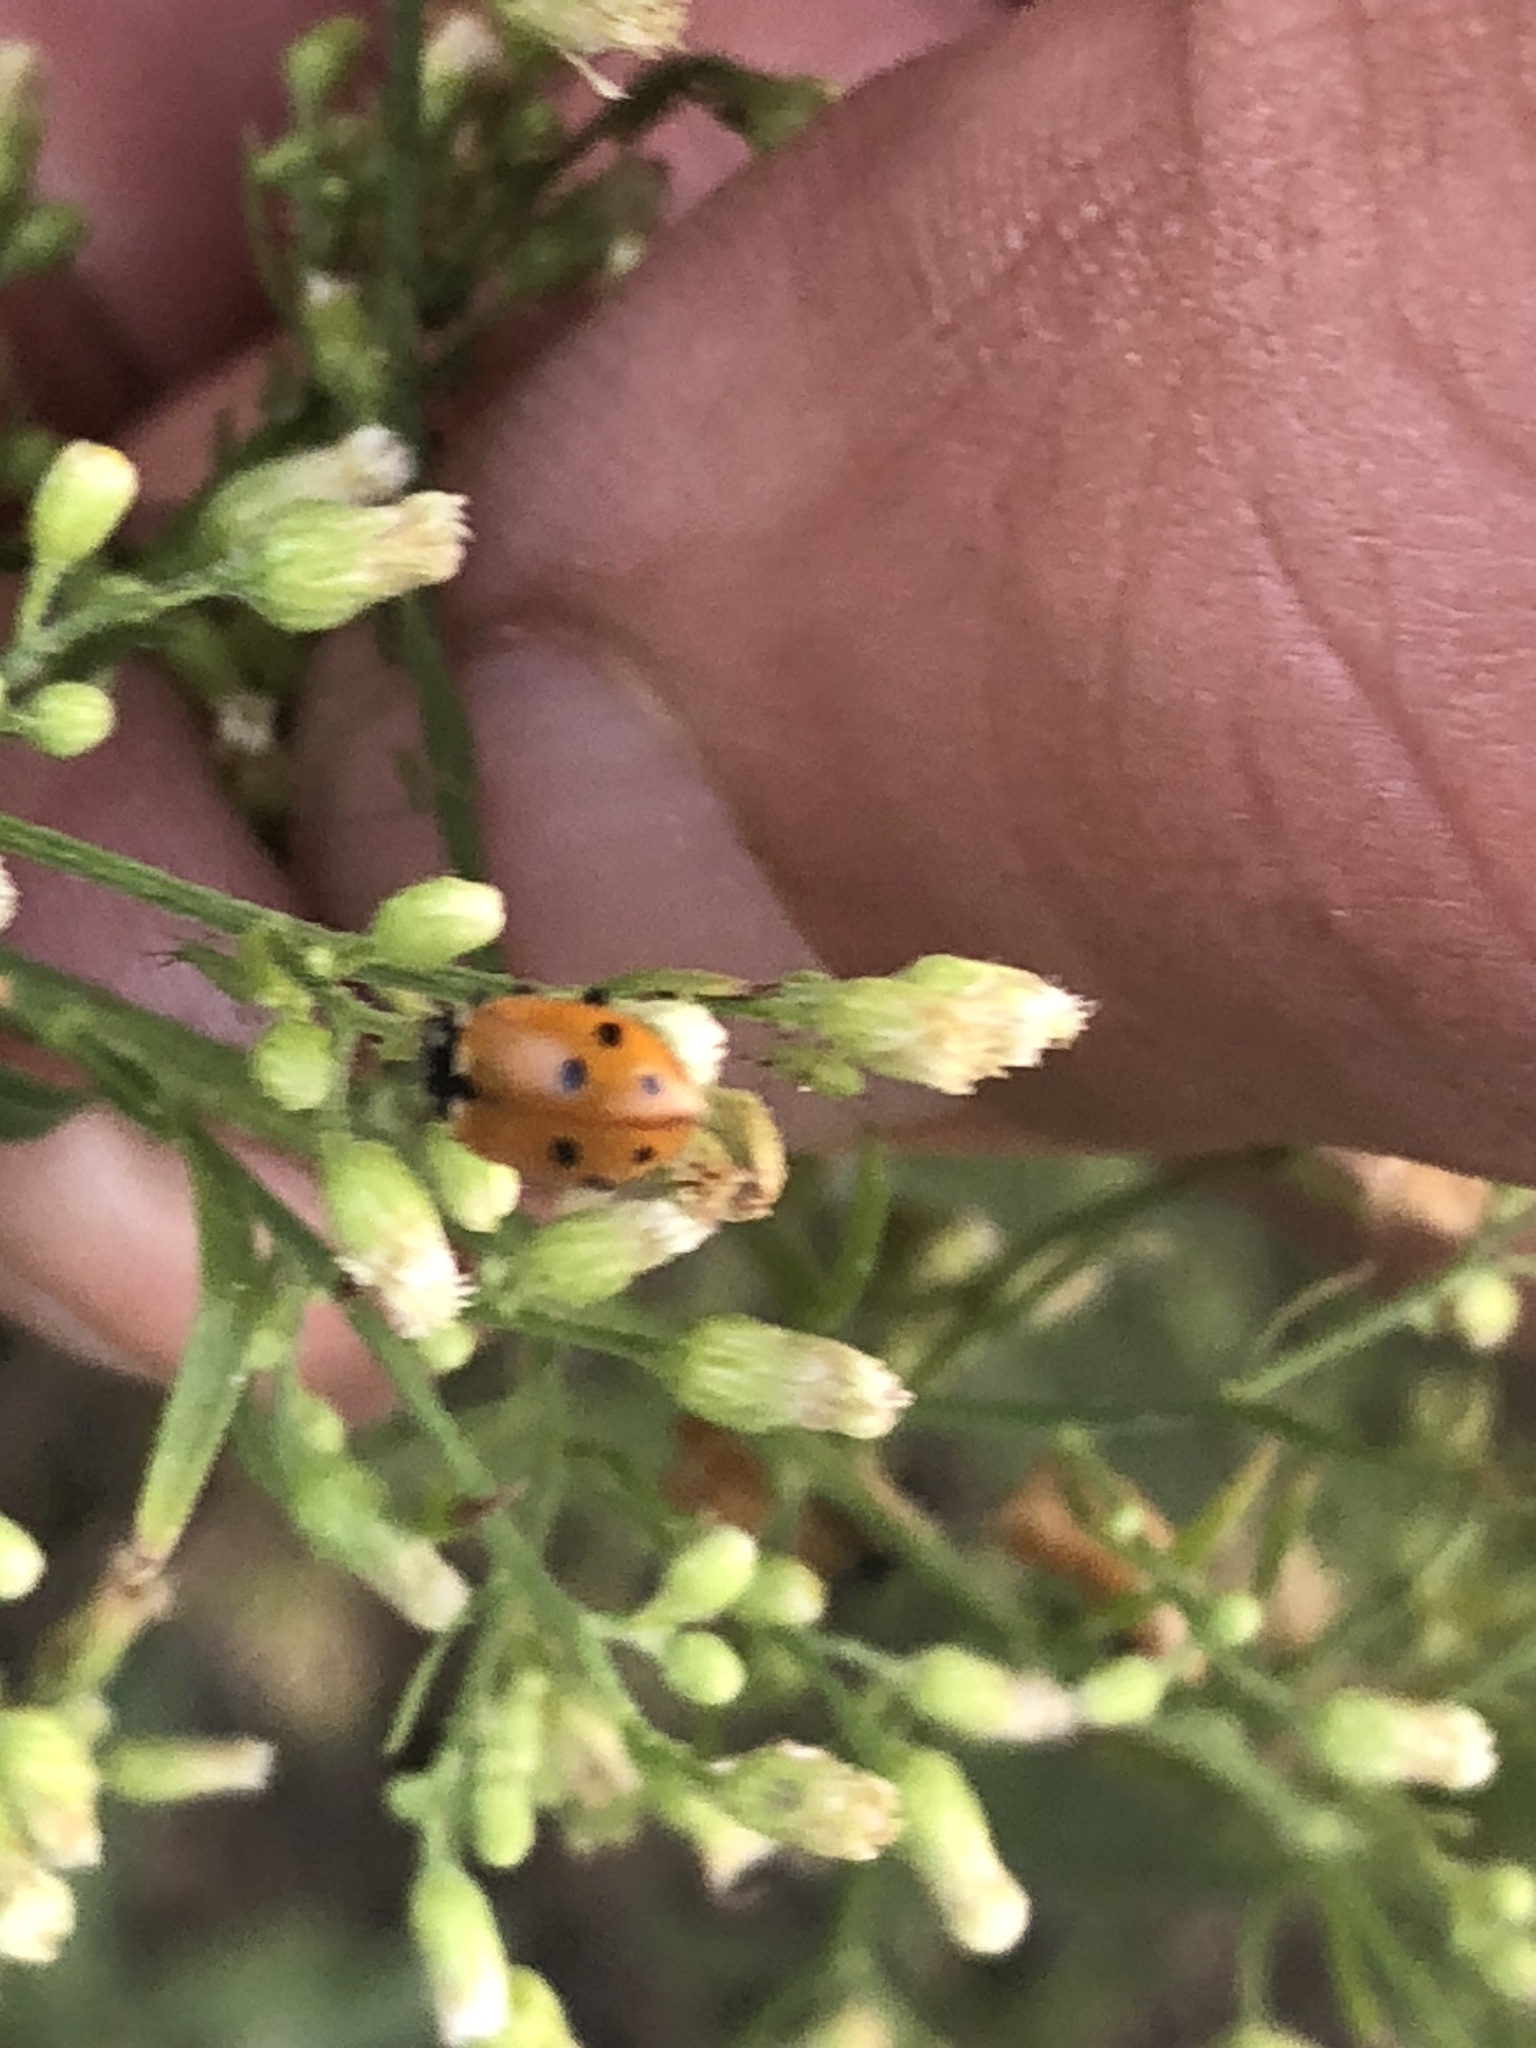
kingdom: Animalia
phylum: Arthropoda
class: Insecta
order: Coleoptera
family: Coccinellidae
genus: Hippodamia
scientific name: Hippodamia variegata
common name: Ladybird beetle
